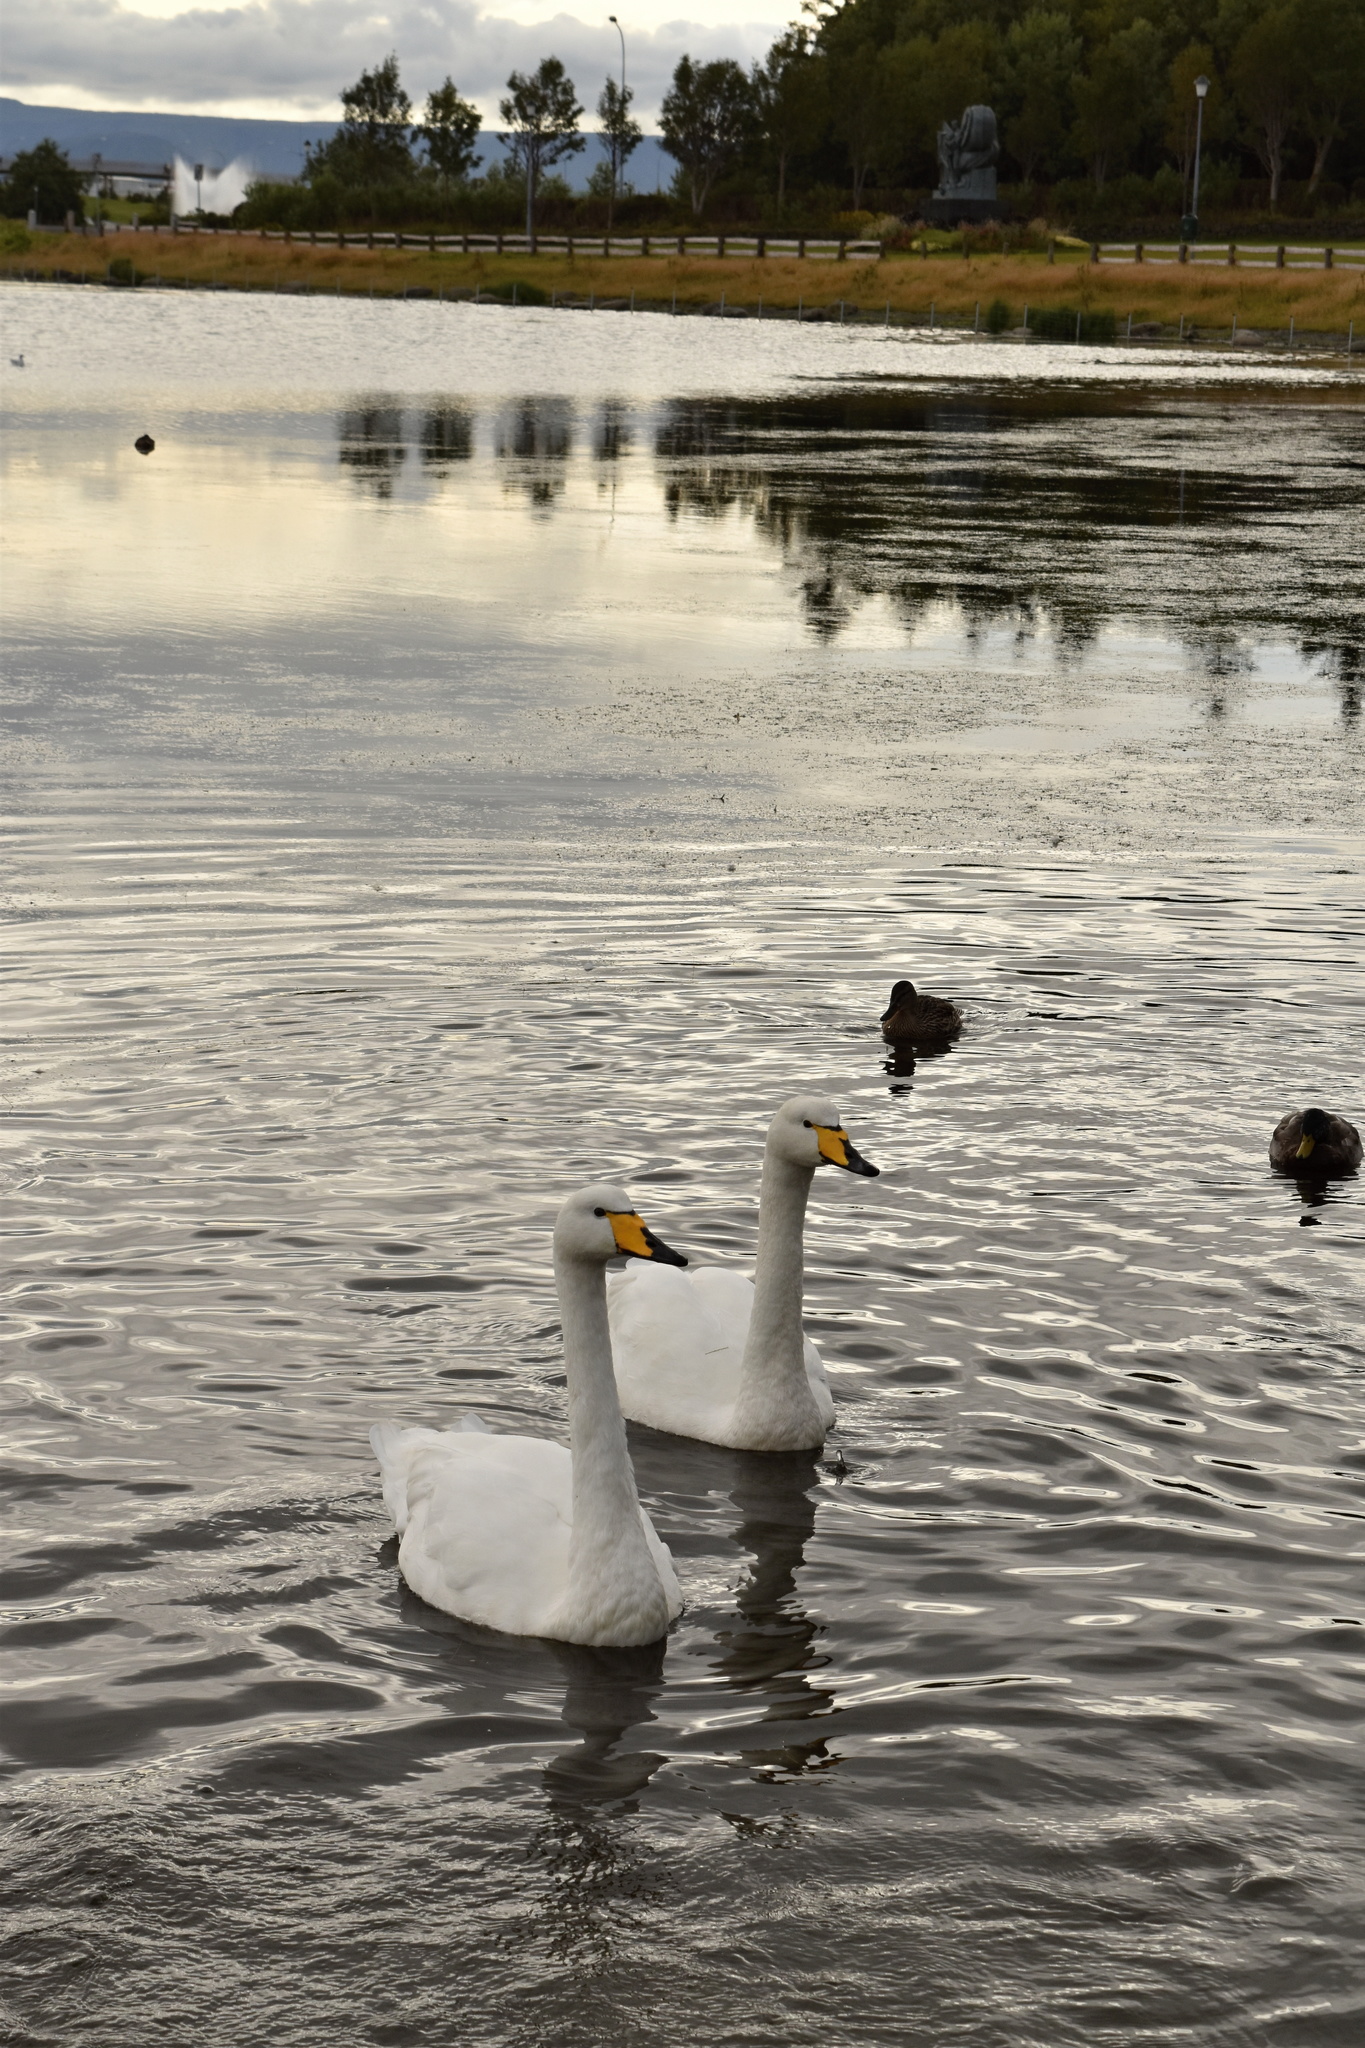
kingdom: Animalia
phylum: Chordata
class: Aves
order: Anseriformes
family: Anatidae
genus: Cygnus
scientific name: Cygnus cygnus
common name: Whooper swan
